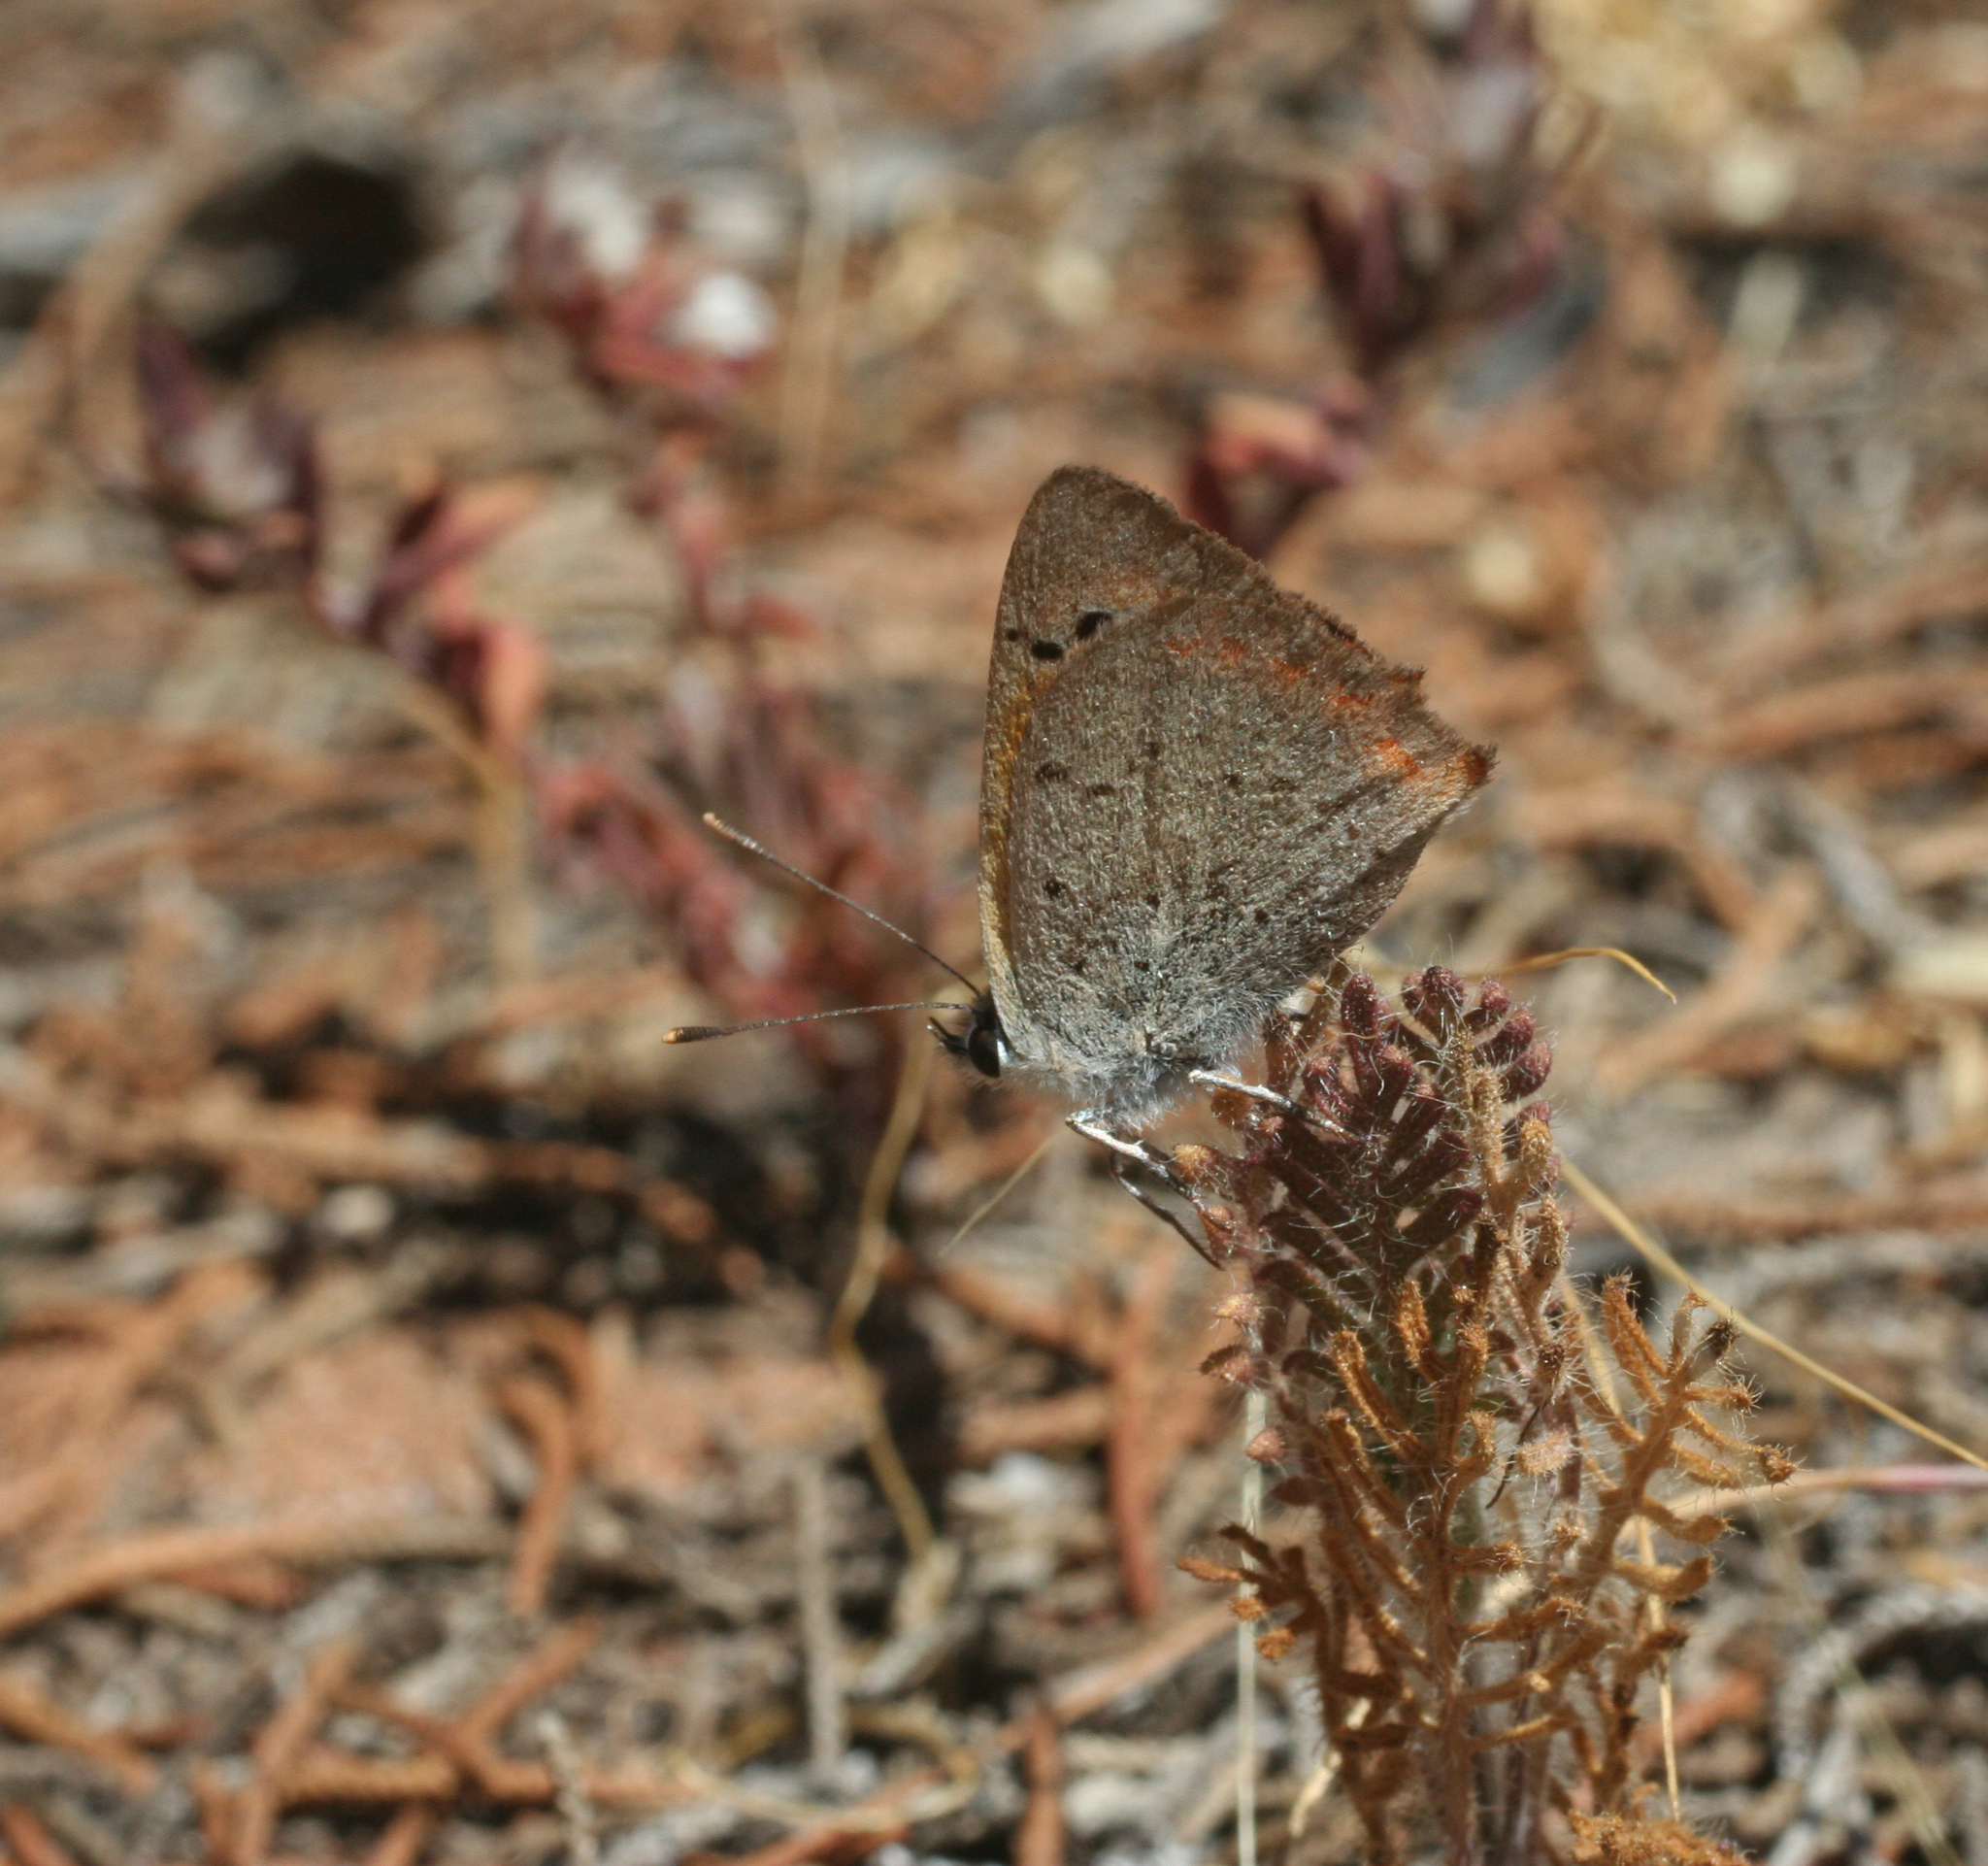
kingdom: Animalia
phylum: Arthropoda
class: Insecta
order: Lepidoptera
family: Lycaenidae
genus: Lycaena
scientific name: Lycaena phlaeas
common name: Small copper
